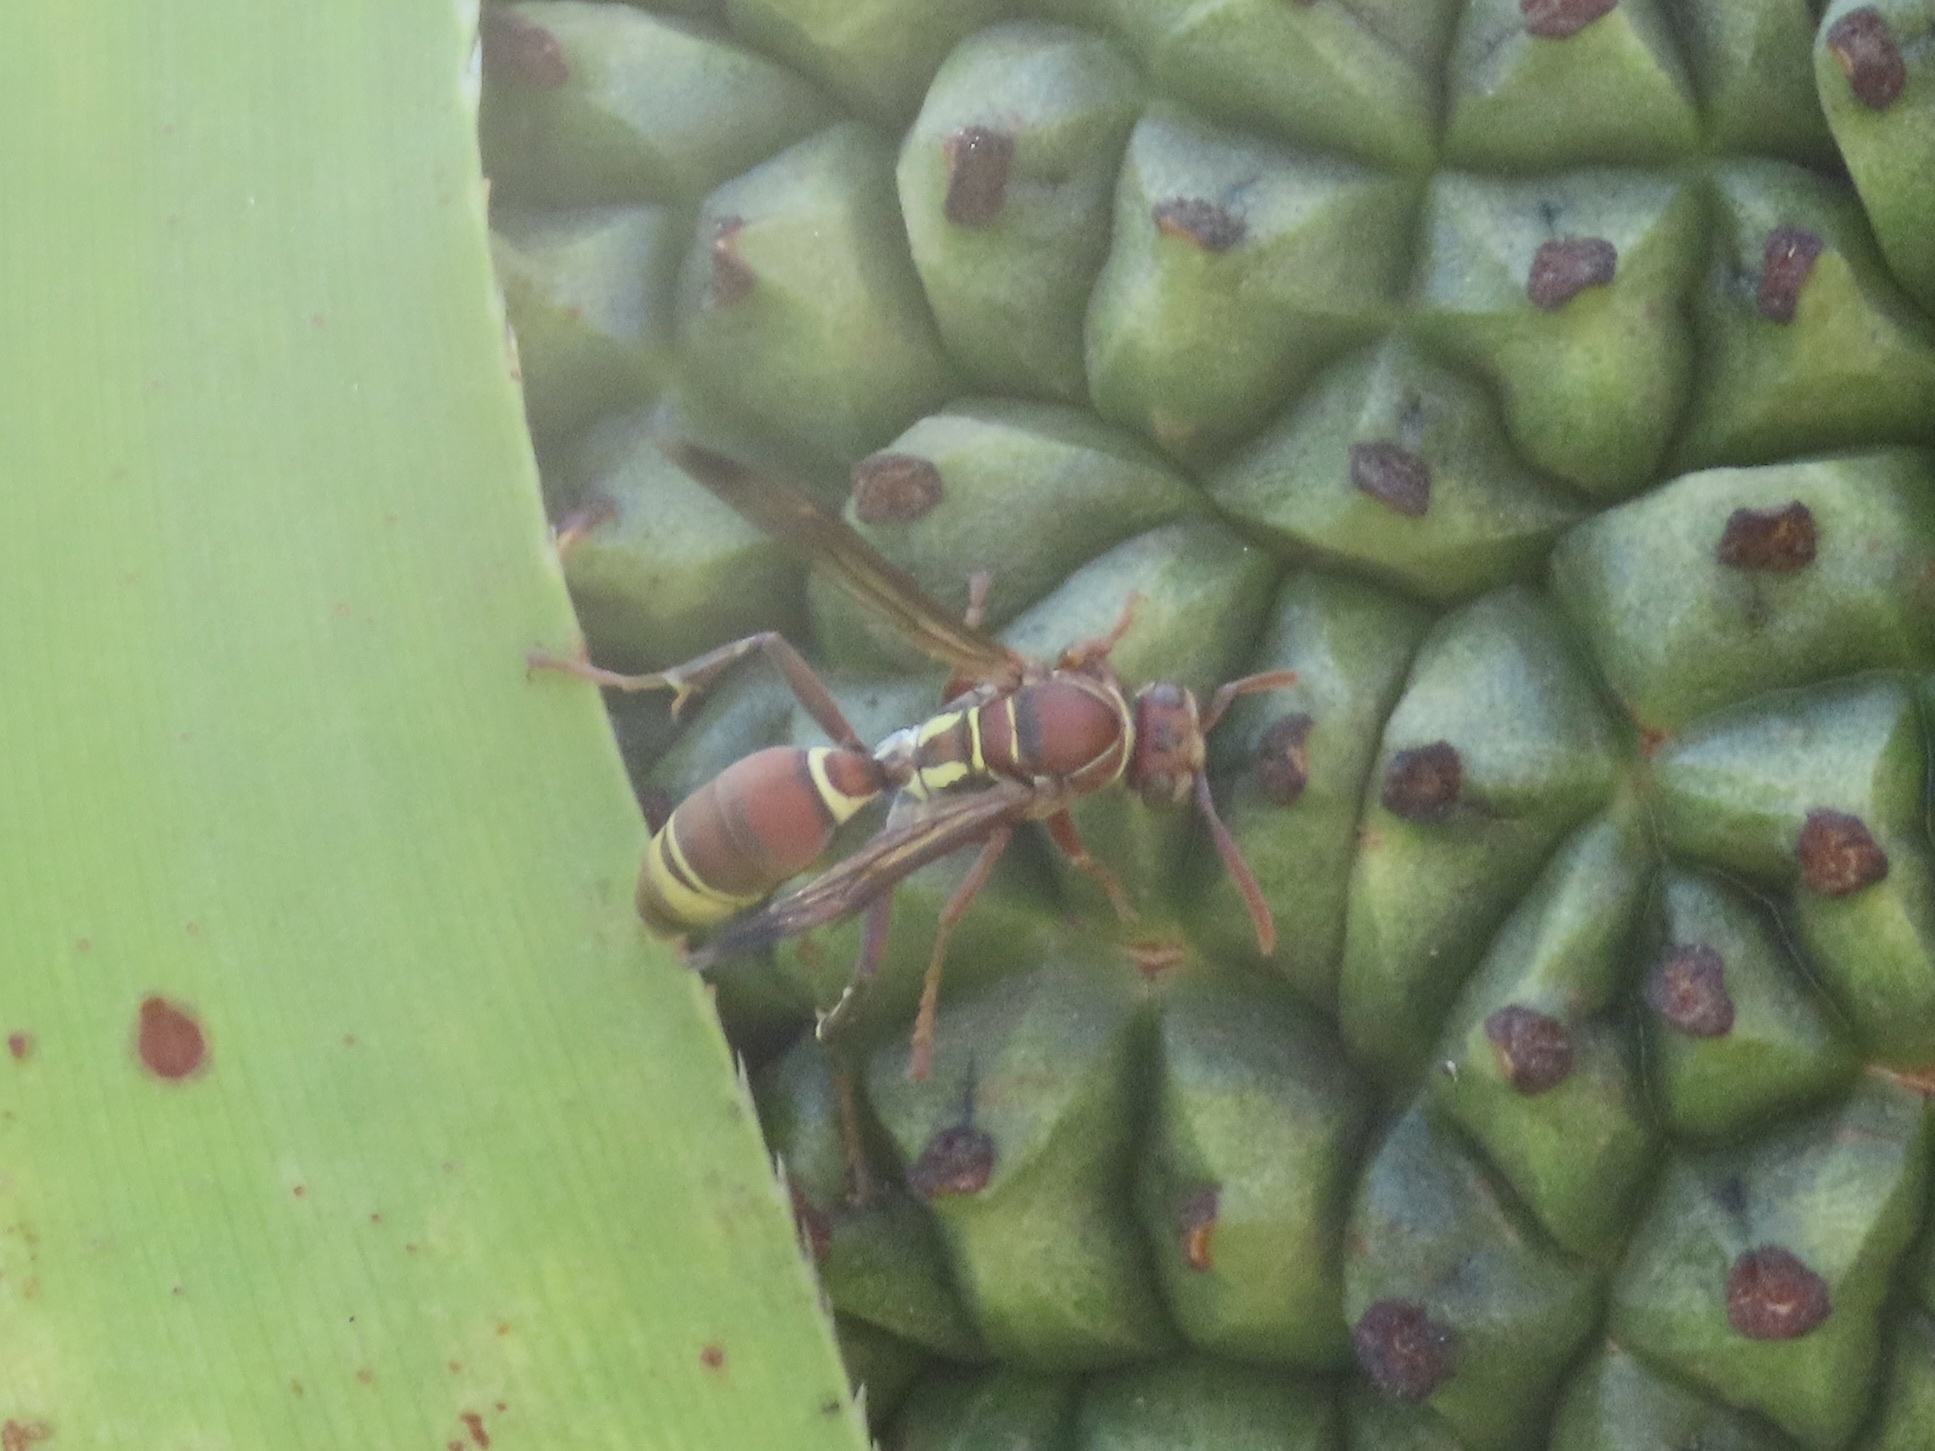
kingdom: Animalia
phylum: Arthropoda
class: Insecta
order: Hymenoptera
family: Eumenidae
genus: Polistes
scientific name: Polistes stigma
